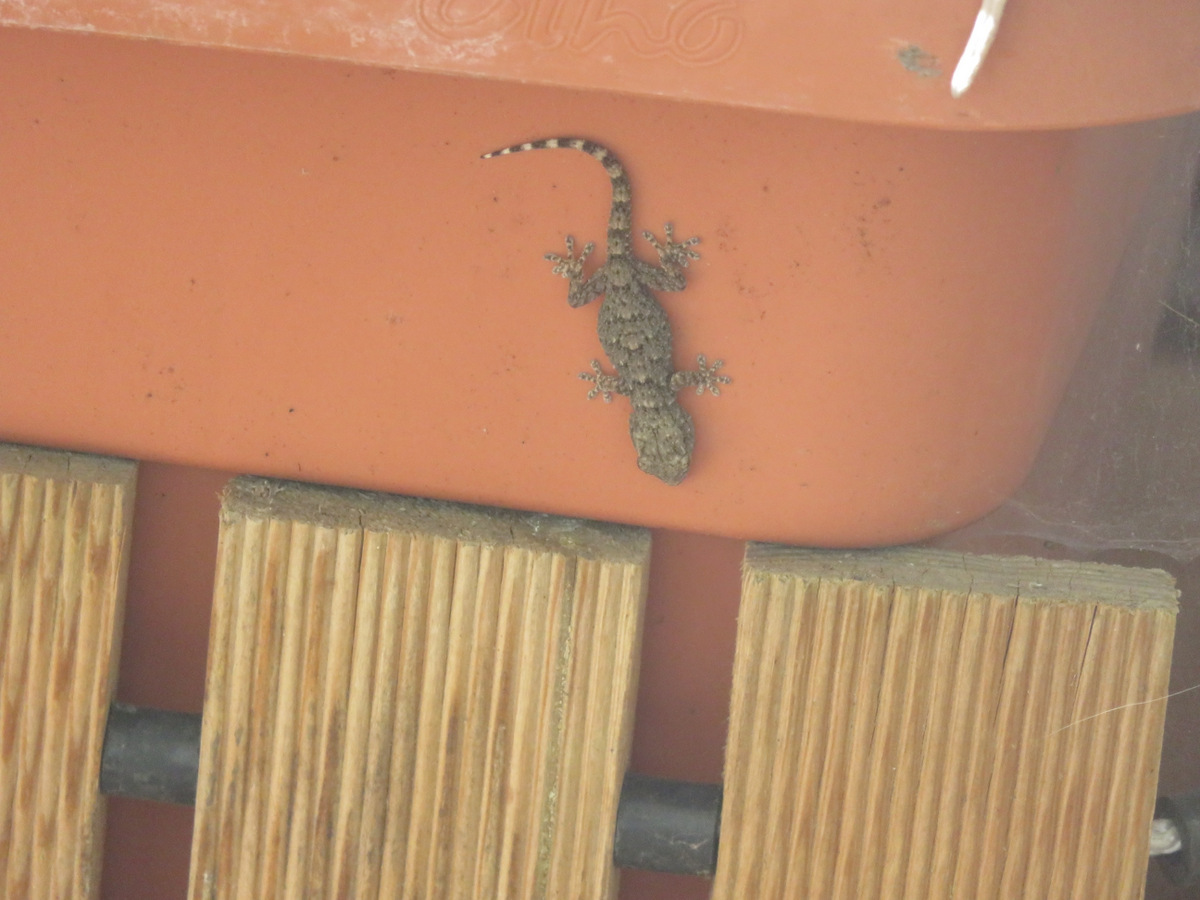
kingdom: Animalia
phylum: Chordata
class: Squamata
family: Phyllodactylidae
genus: Tarentola
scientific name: Tarentola mauritanica
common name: Moorish gecko
